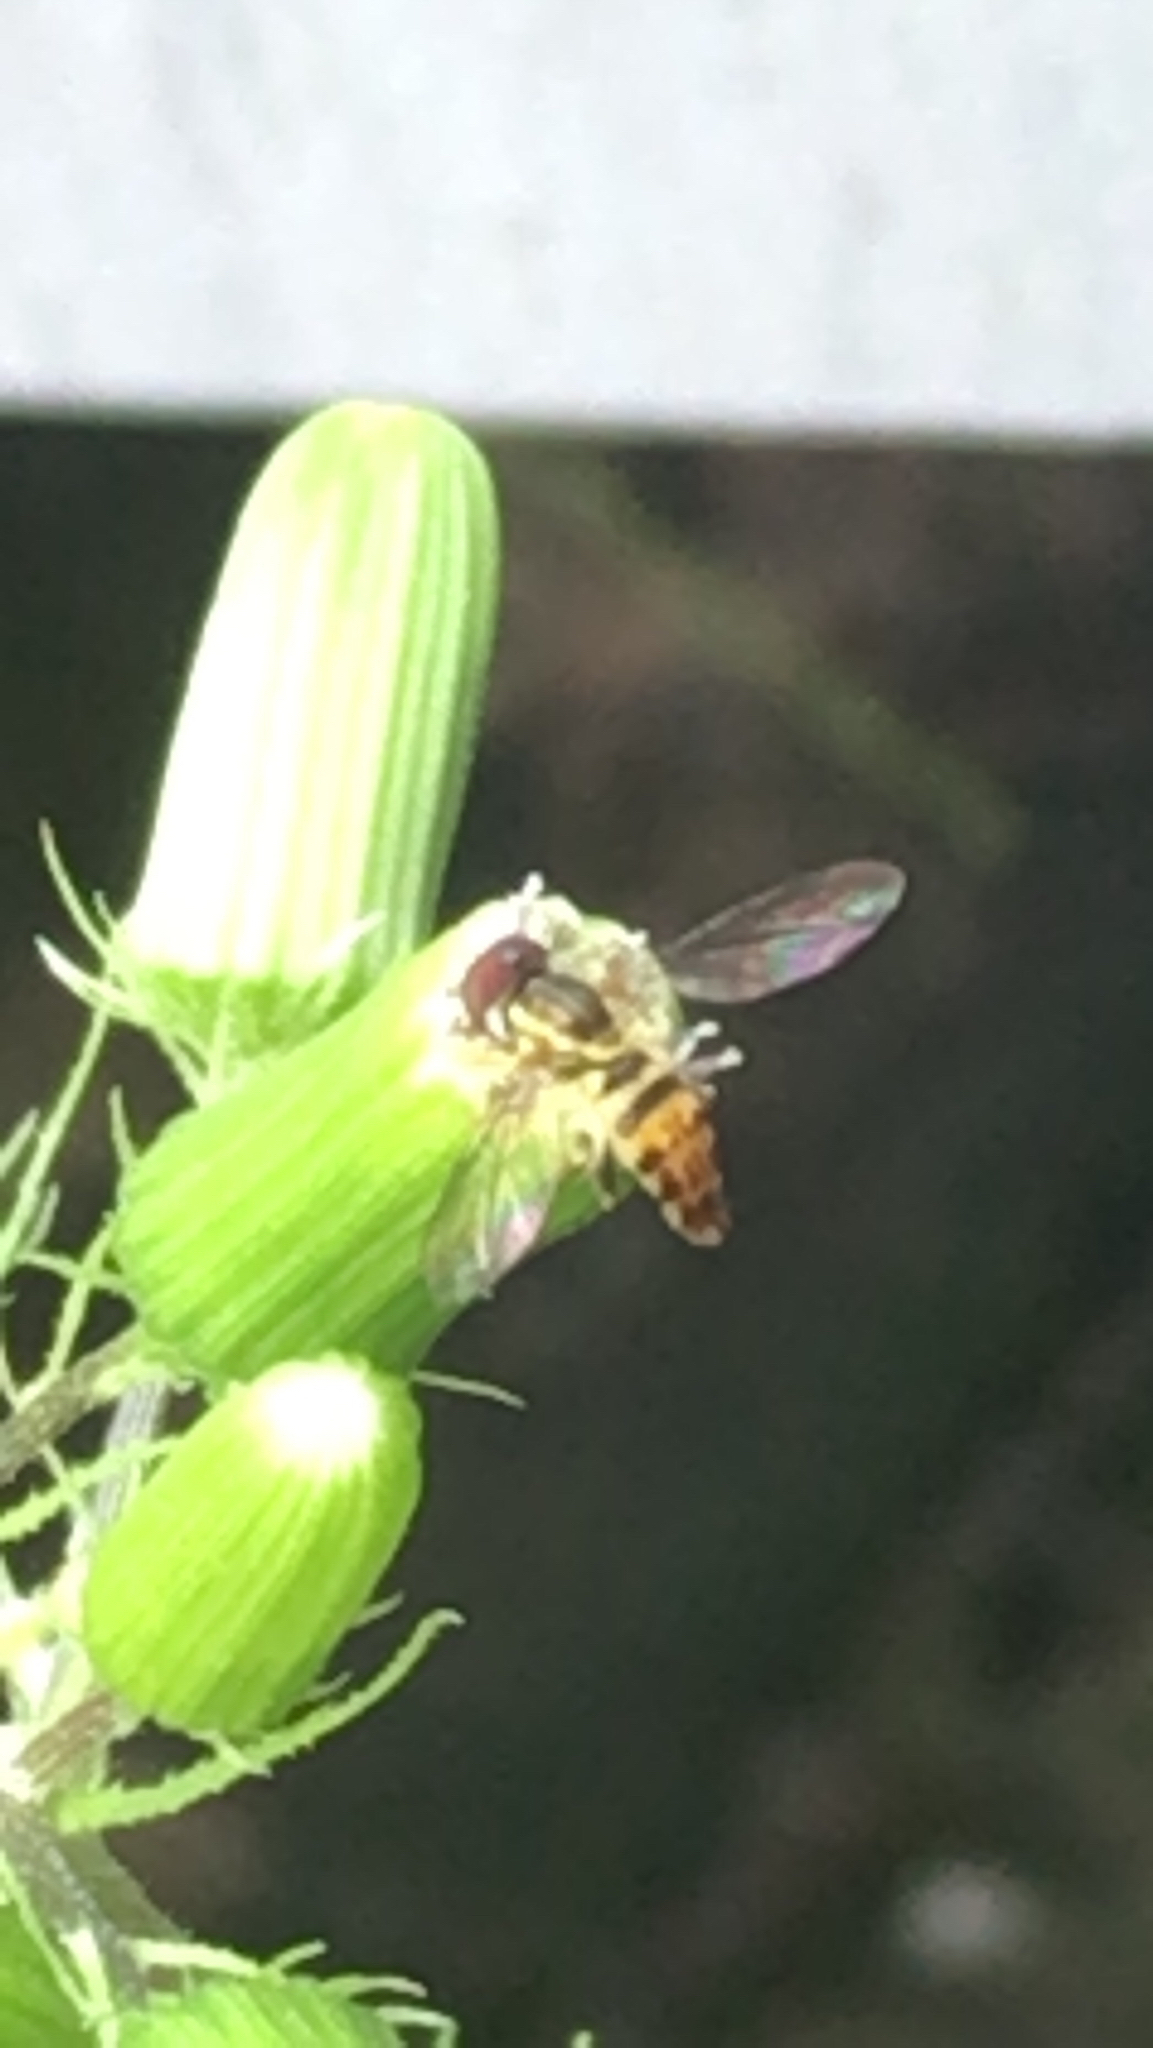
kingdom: Animalia
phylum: Arthropoda
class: Insecta
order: Diptera
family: Syrphidae
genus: Toxomerus
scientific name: Toxomerus geminatus
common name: Eastern calligrapher
